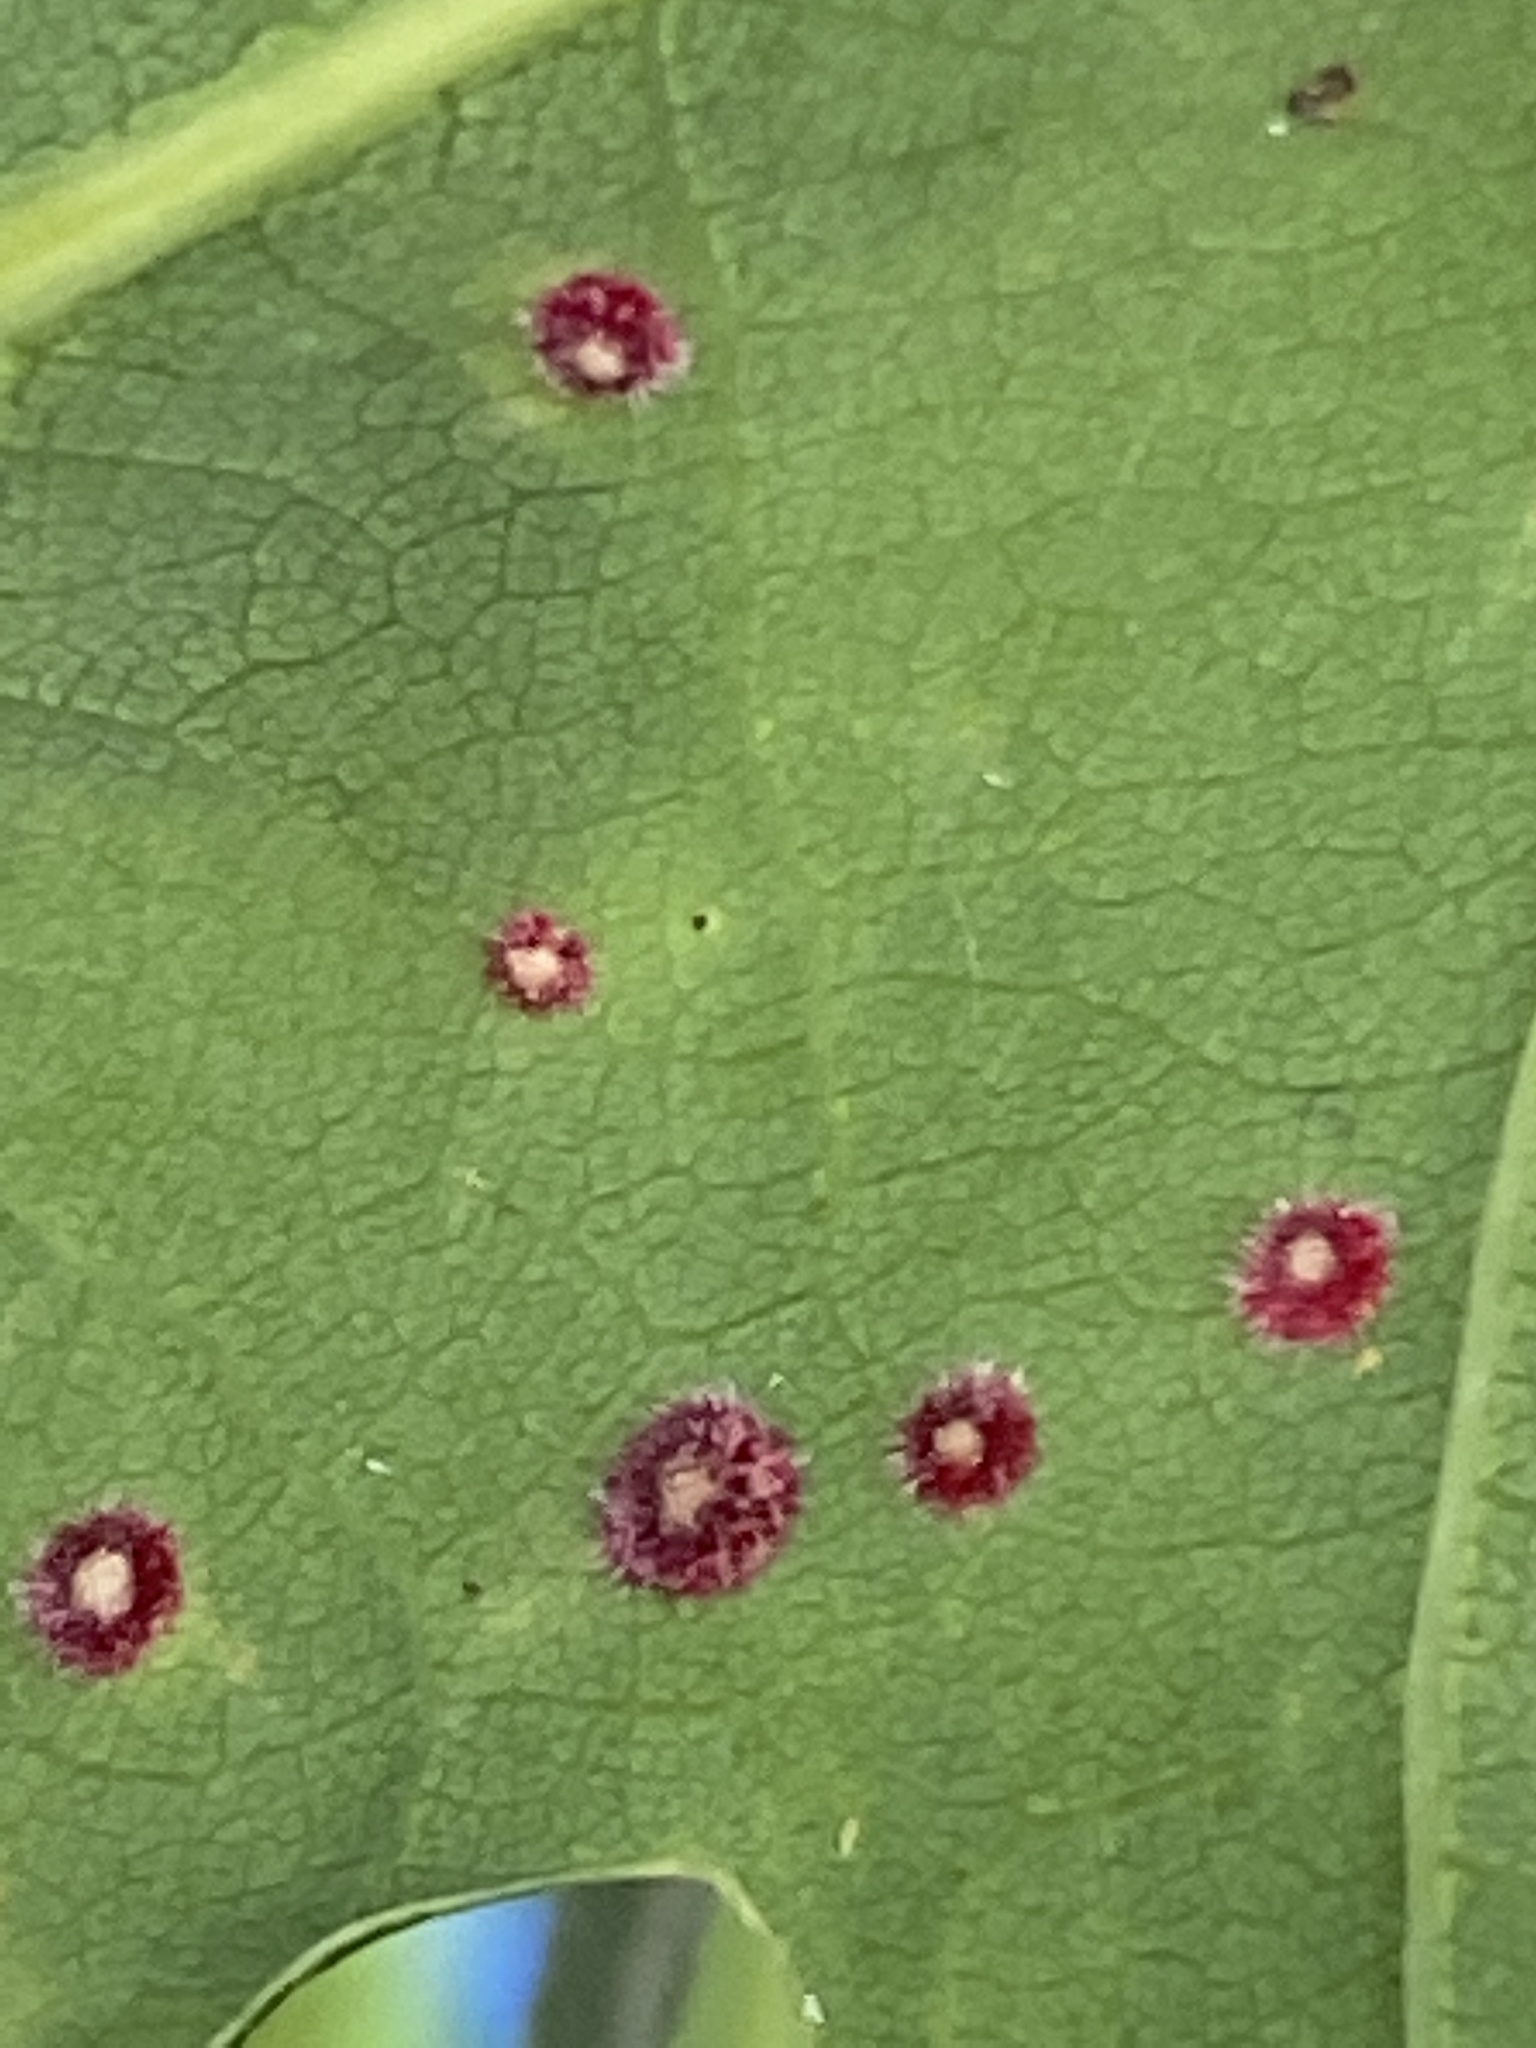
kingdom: Animalia
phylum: Arthropoda
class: Insecta
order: Hymenoptera
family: Cynipidae
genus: Neuroterus
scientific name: Neuroterus quercusbaccarum
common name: Common spangle gall
